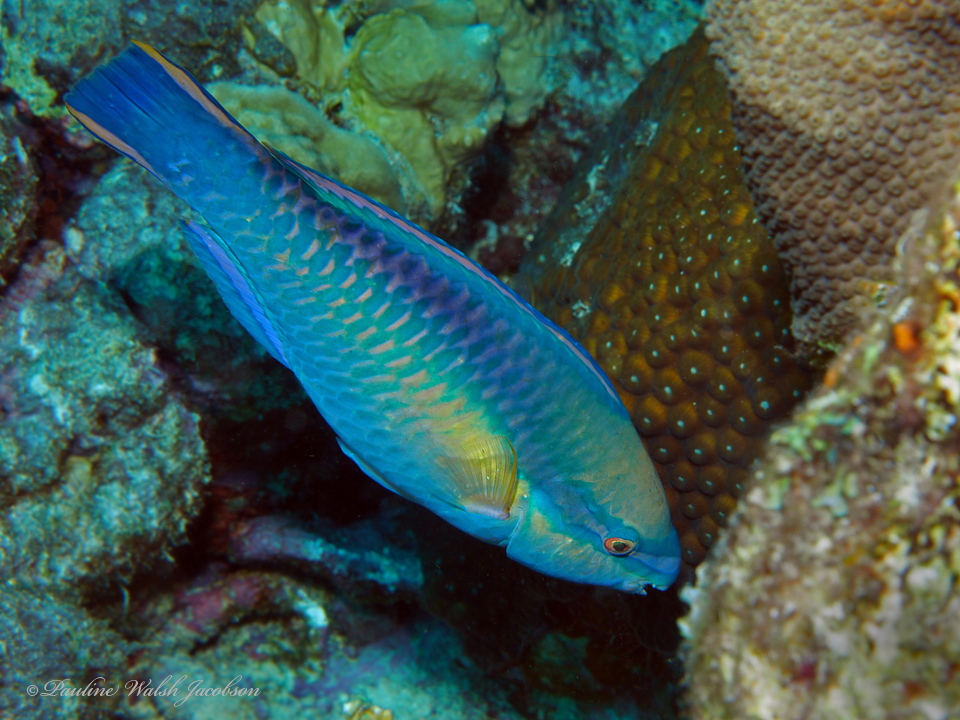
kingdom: Animalia
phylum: Chordata
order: Perciformes
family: Scaridae
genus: Scarus
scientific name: Scarus taeniopterus
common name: Princess parrotfish
